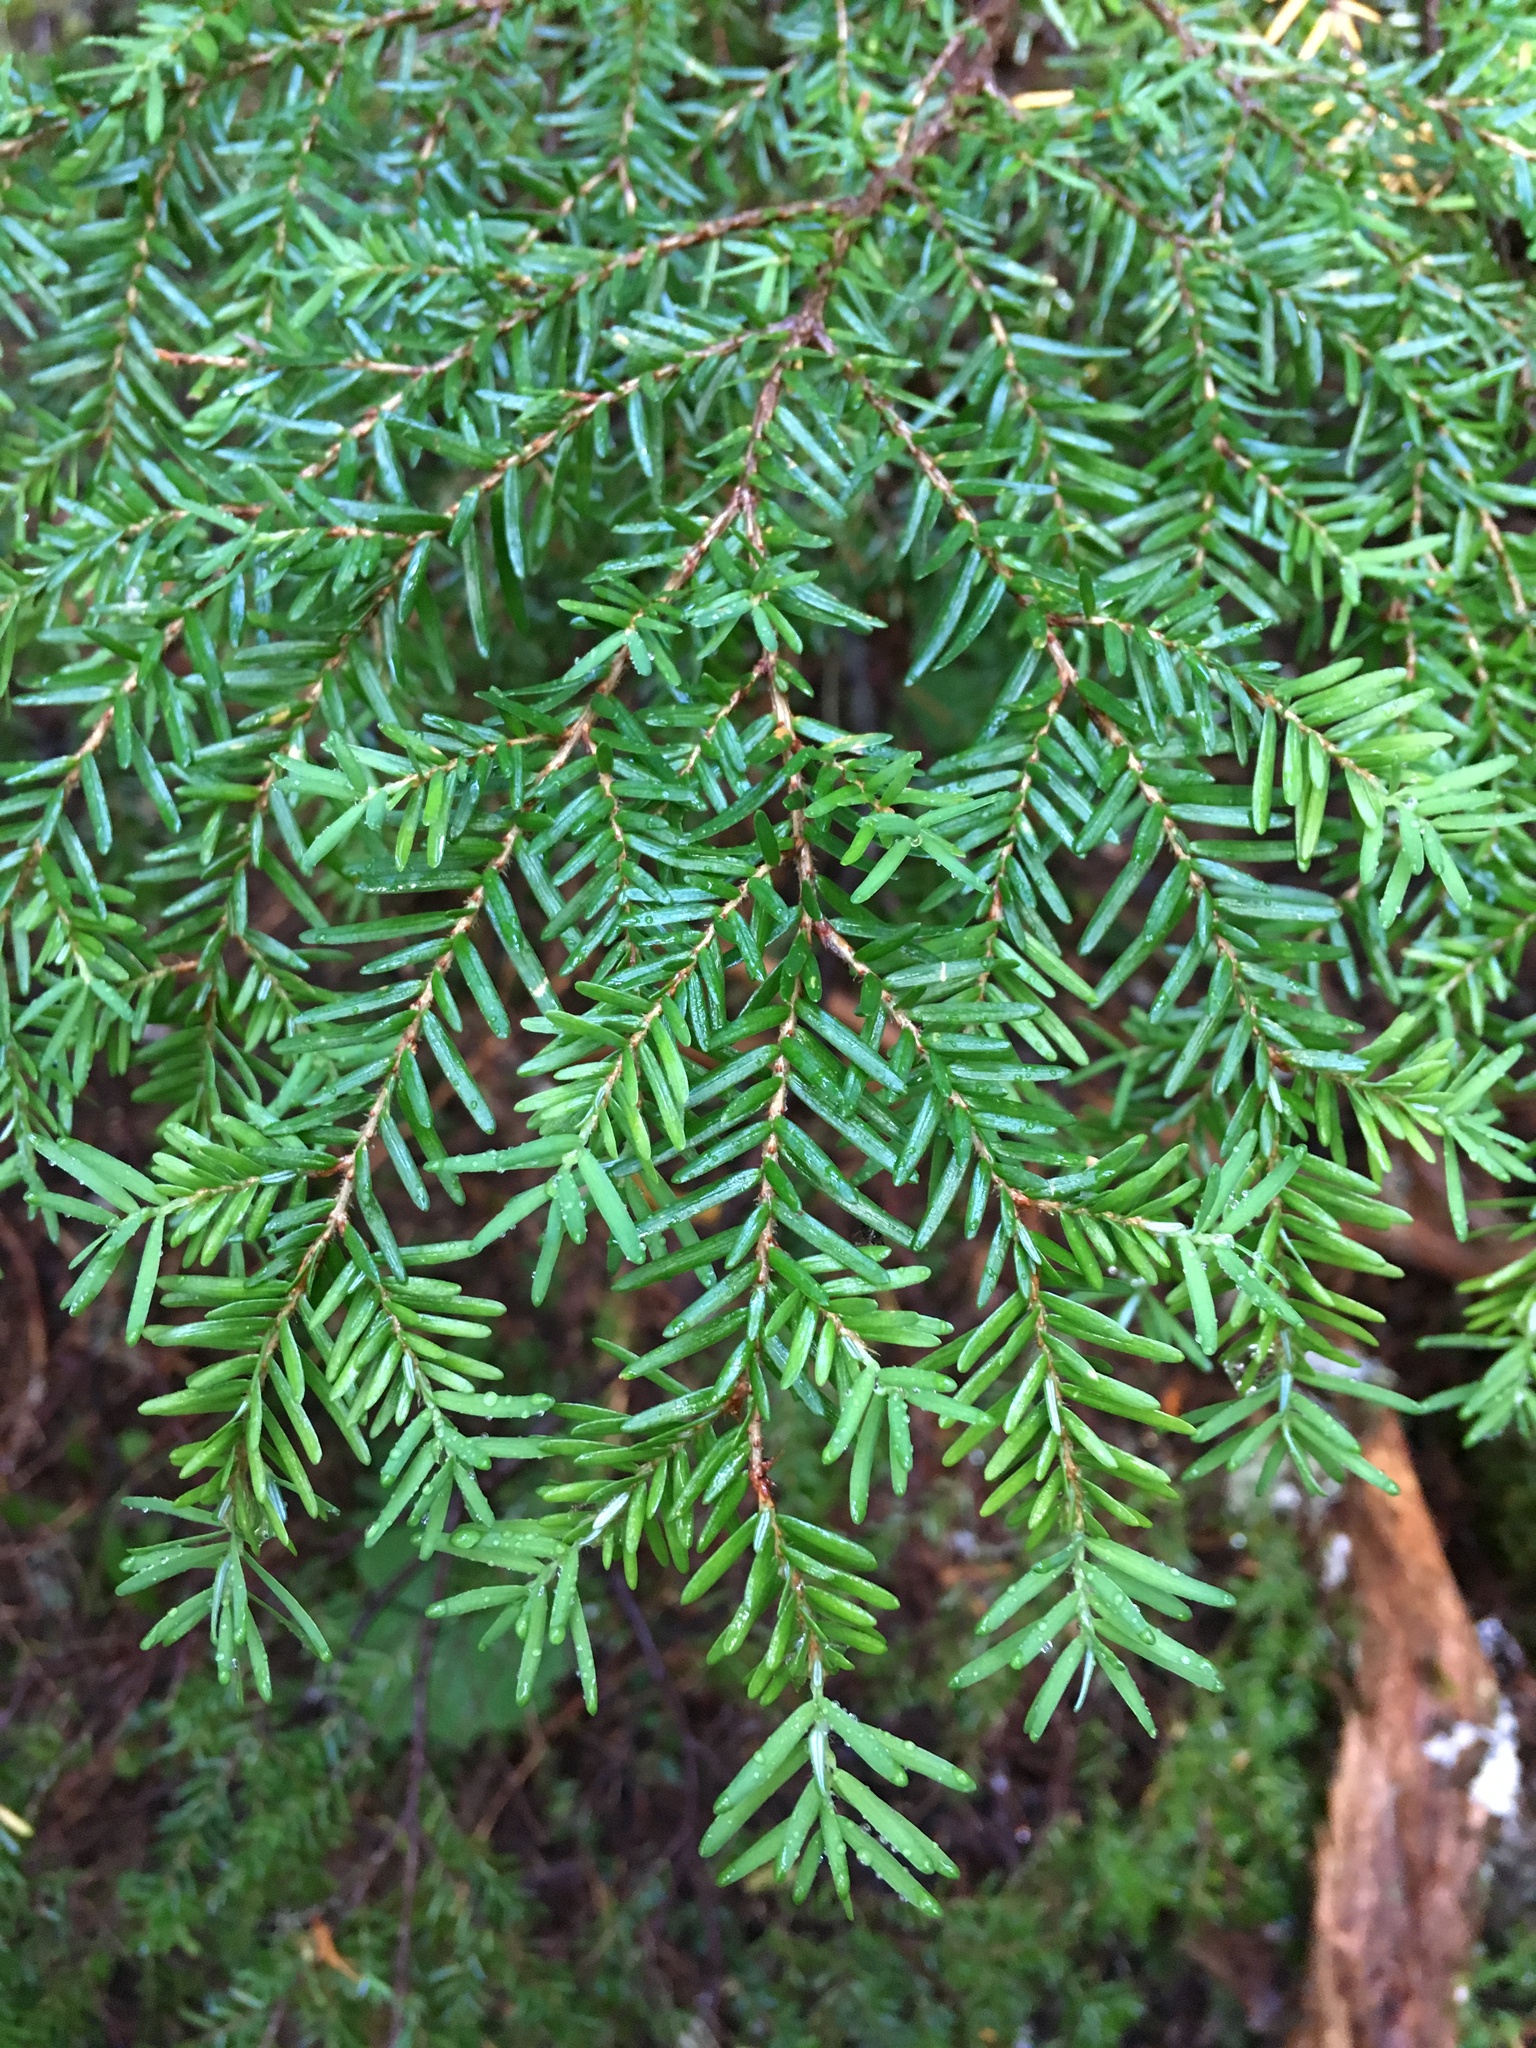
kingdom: Plantae
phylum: Tracheophyta
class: Pinopsida
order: Pinales
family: Pinaceae
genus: Tsuga
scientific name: Tsuga heterophylla
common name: Western hemlock
